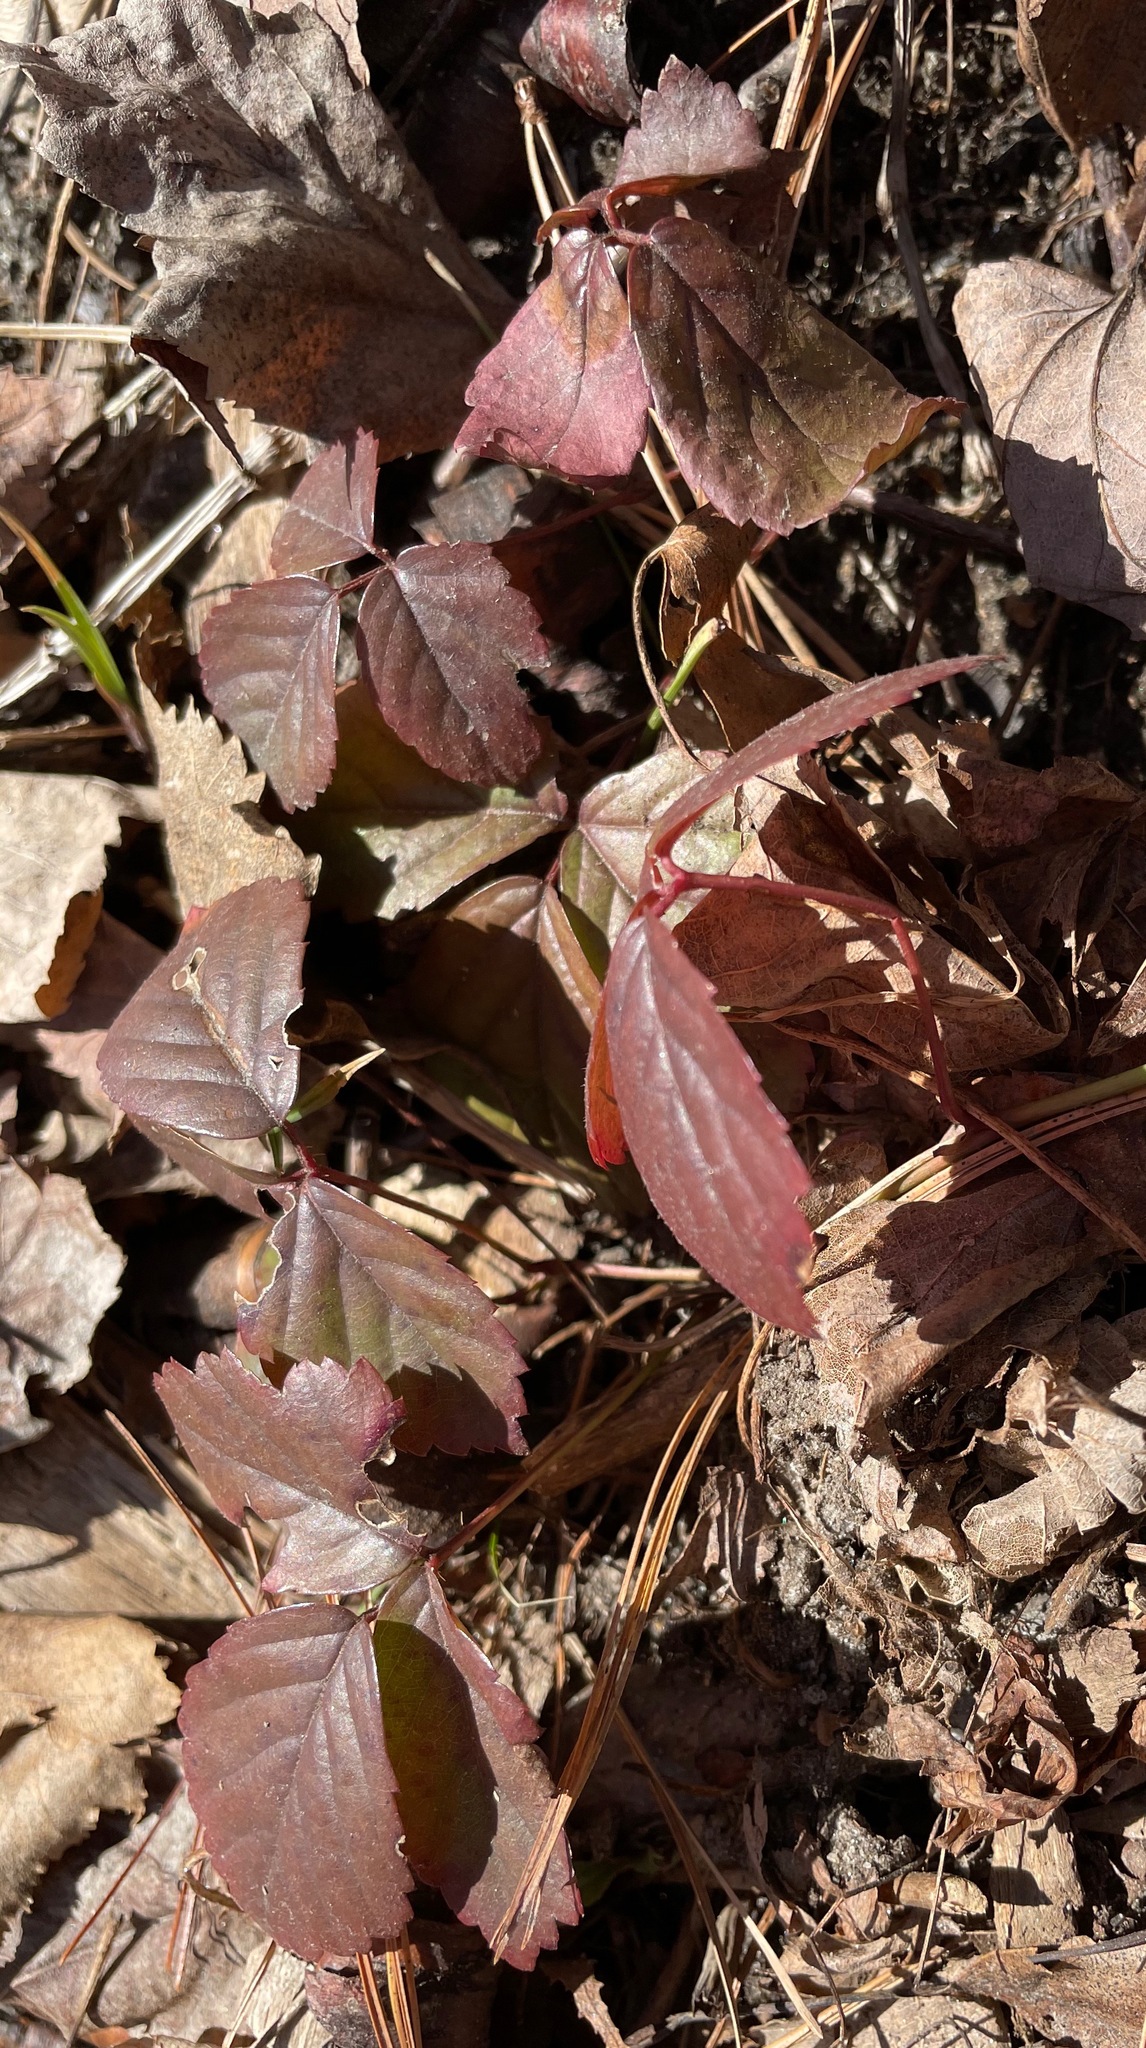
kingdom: Plantae
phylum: Tracheophyta
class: Magnoliopsida
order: Rosales
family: Rosaceae
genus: Rubus
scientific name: Rubus hispidus
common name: Running blackberry
